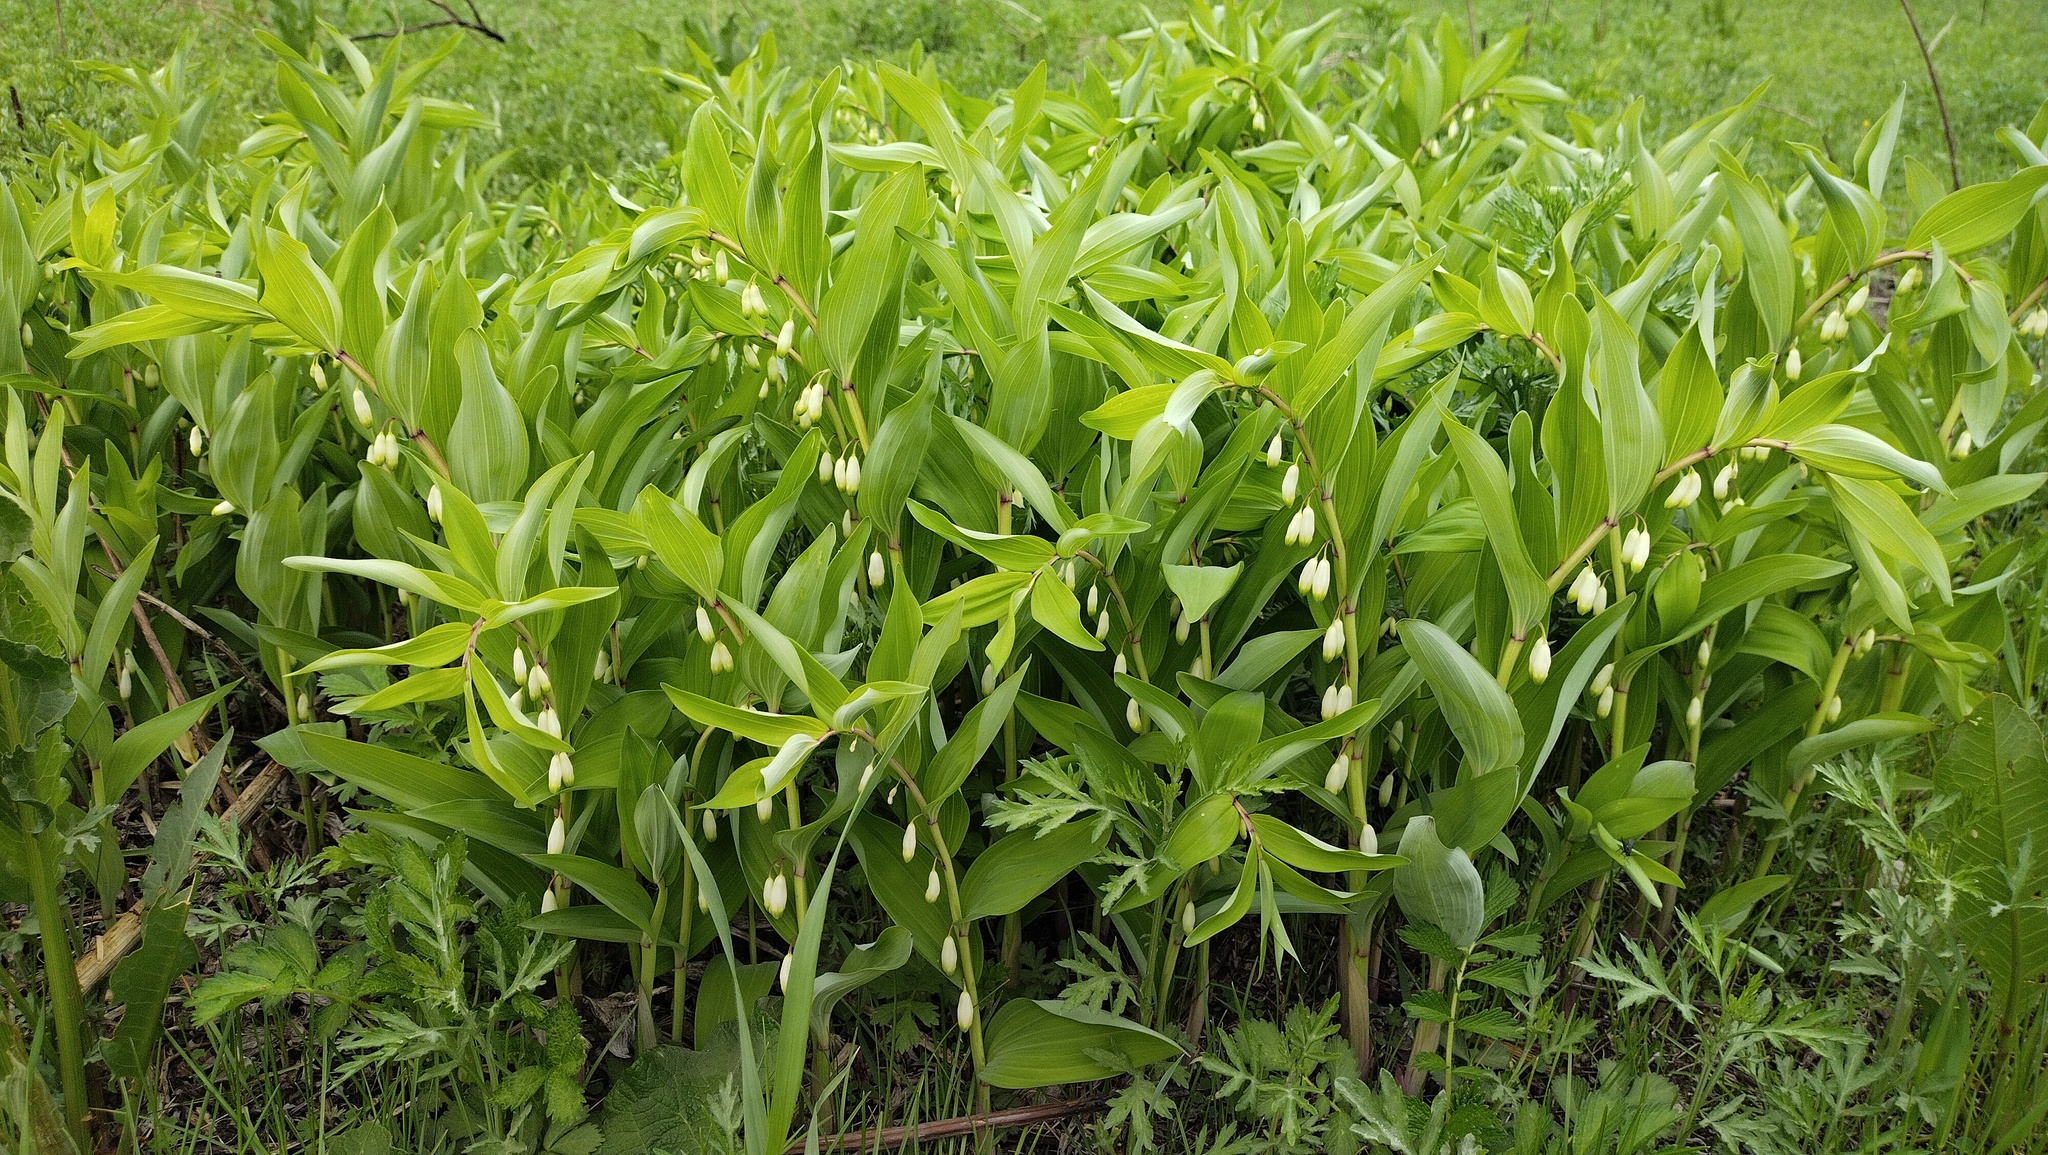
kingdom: Plantae
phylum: Tracheophyta
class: Liliopsida
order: Asparagales
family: Asparagaceae
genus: Polygonatum
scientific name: Polygonatum odoratum
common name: Angular solomon's-seal
